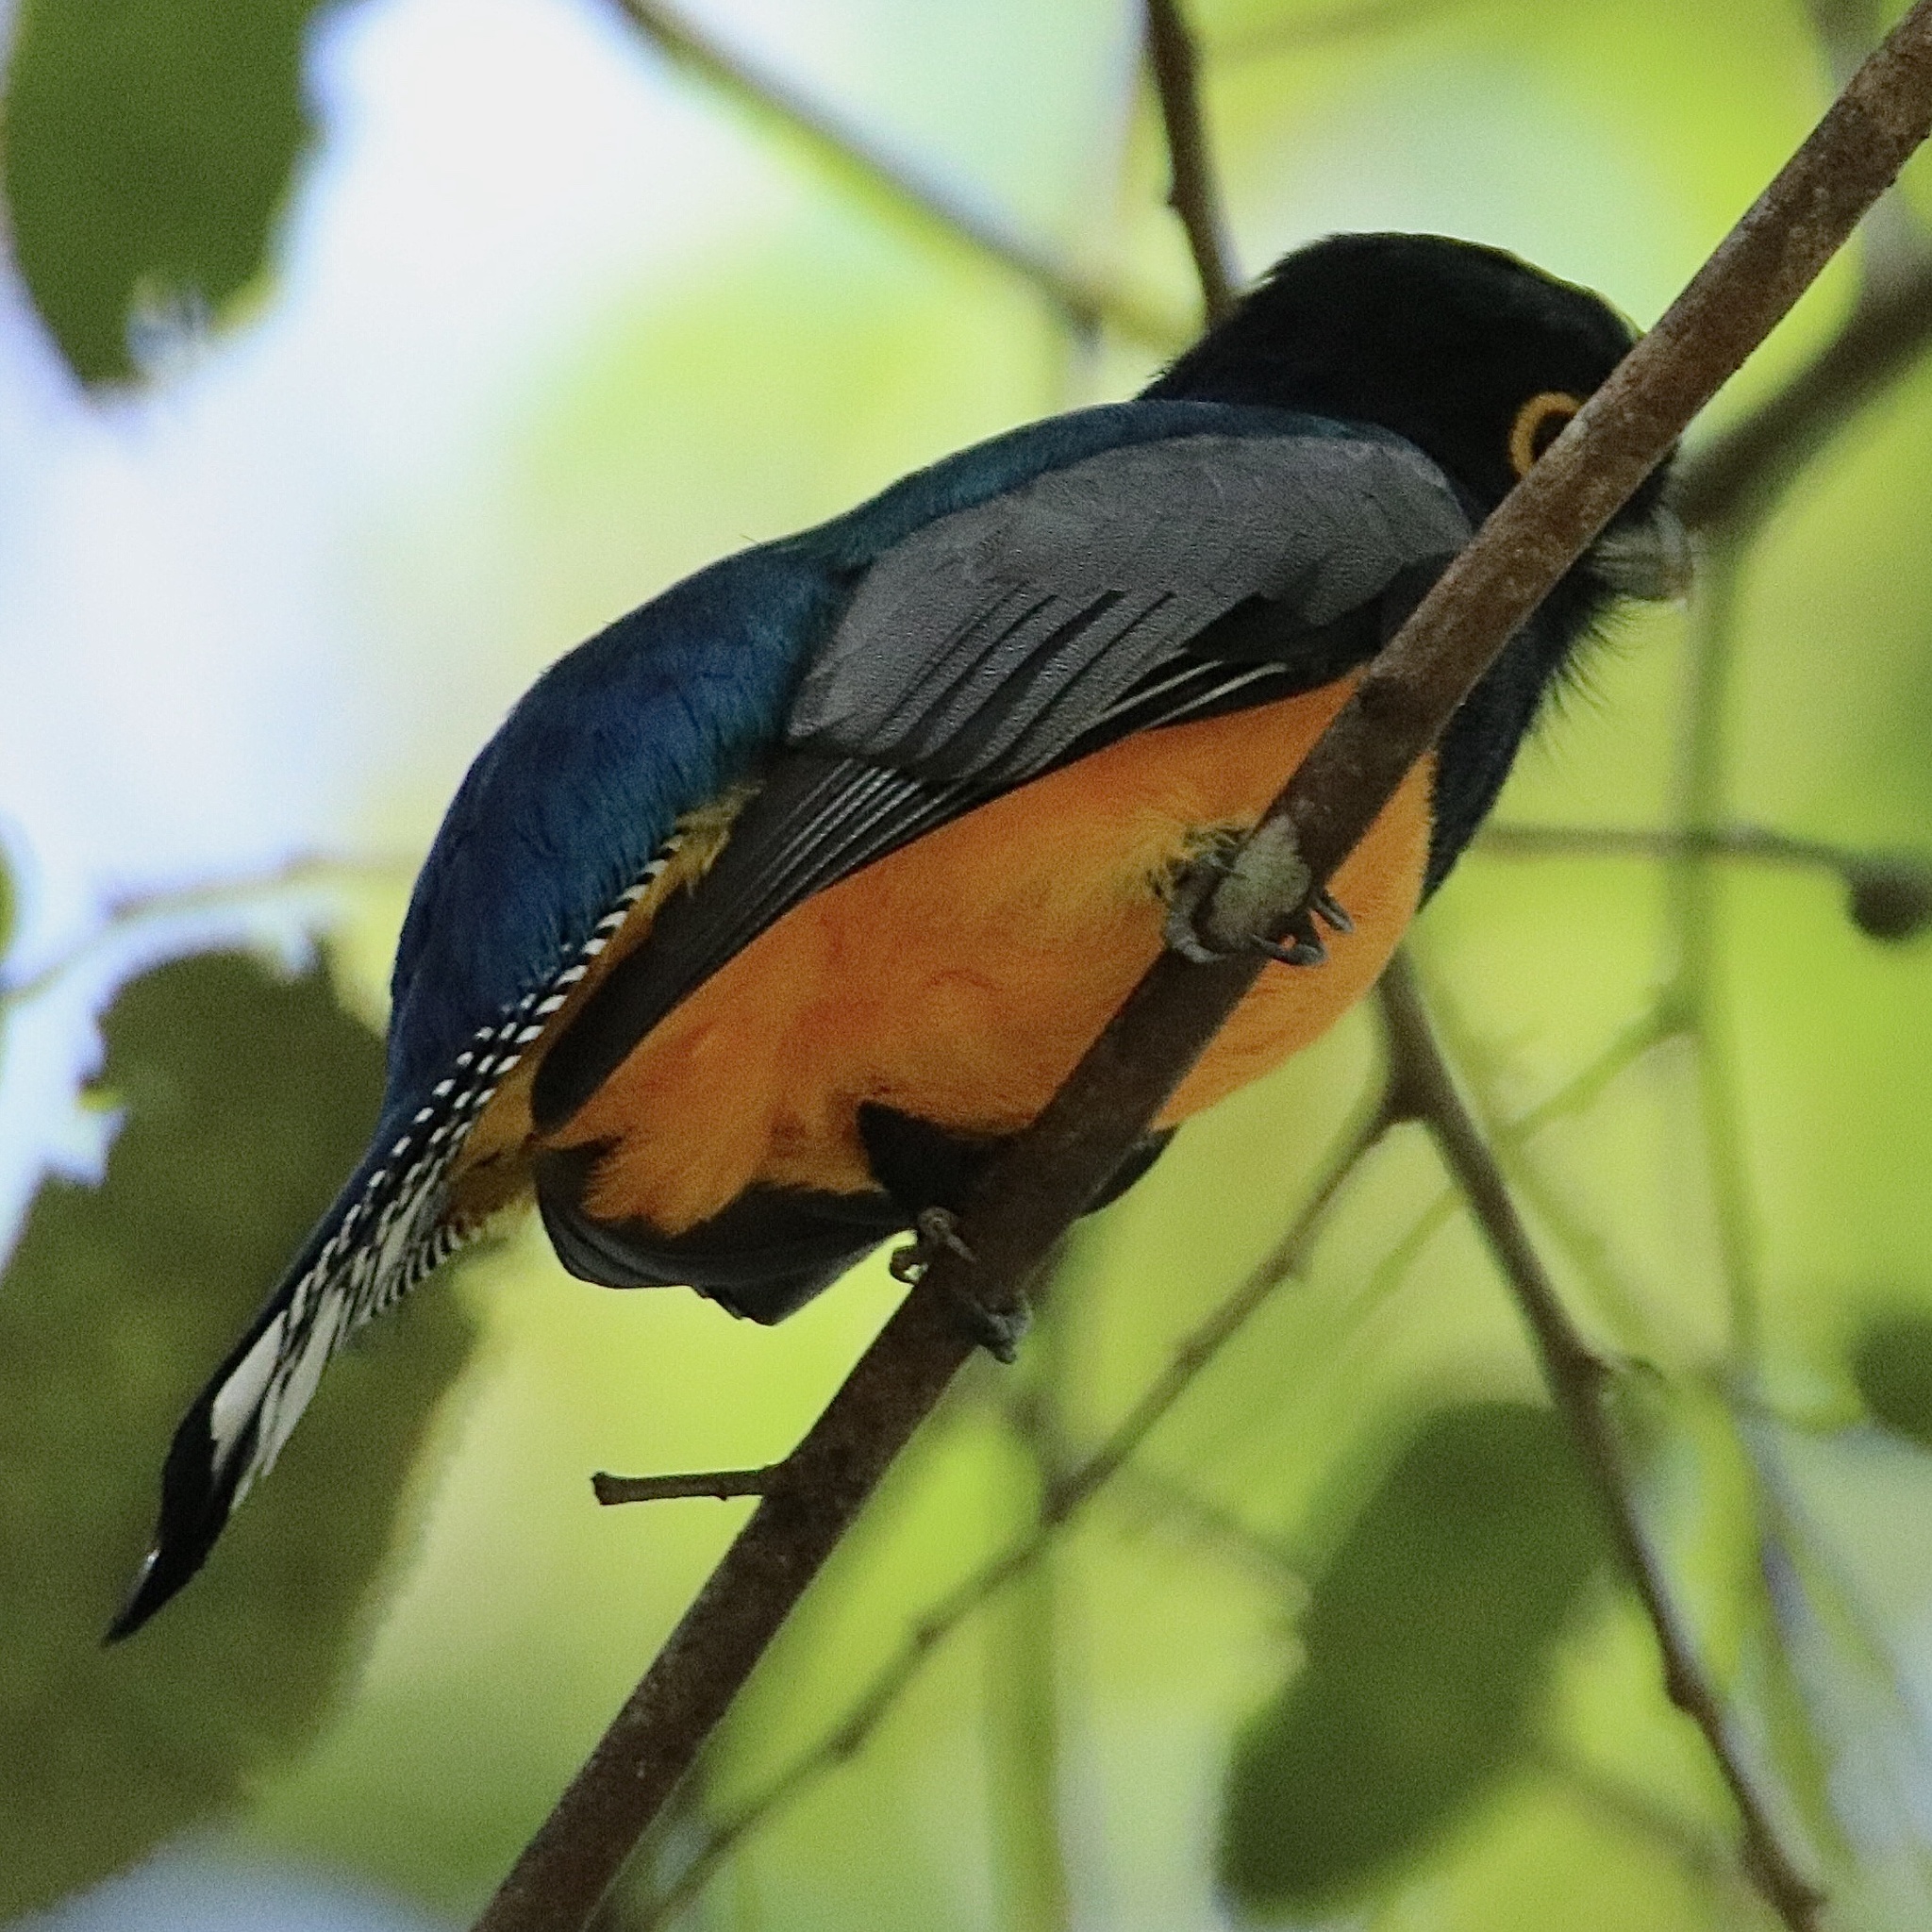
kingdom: Animalia
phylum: Chordata
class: Aves
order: Trogoniformes
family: Trogonidae
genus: Trogon
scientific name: Trogon caligatus
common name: Gartered trogon
